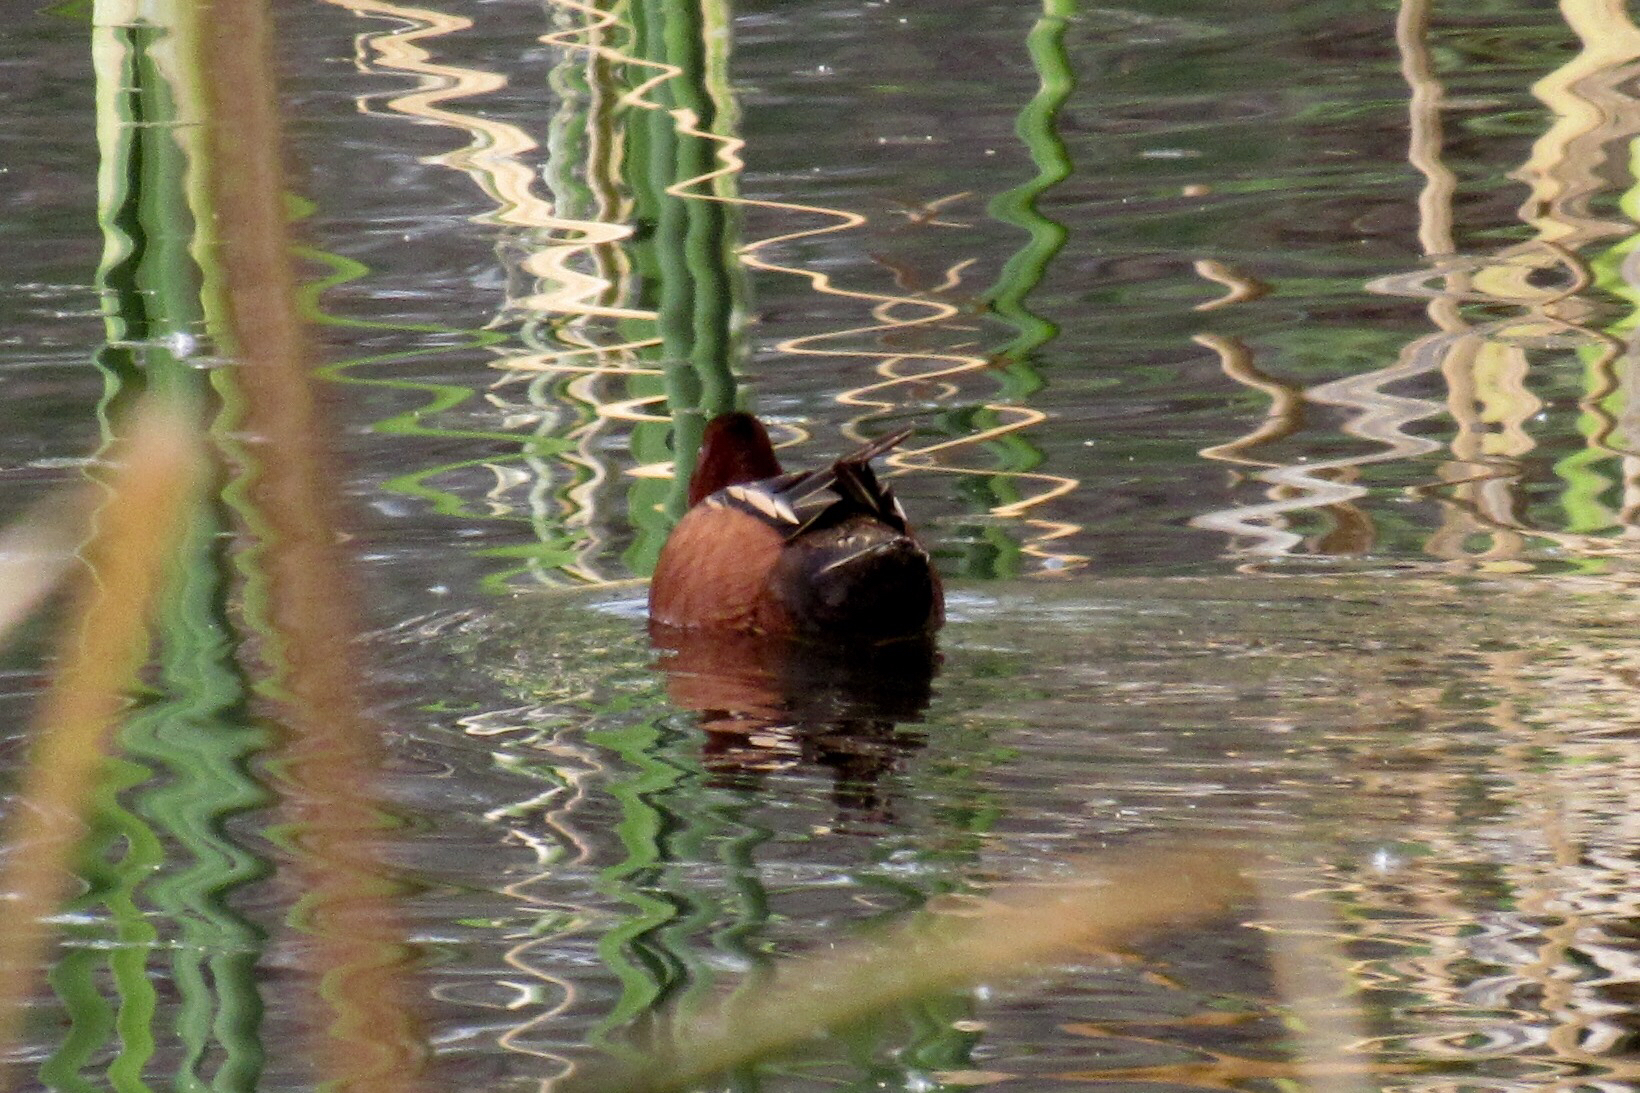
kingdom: Animalia
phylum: Chordata
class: Aves
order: Anseriformes
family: Anatidae
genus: Spatula
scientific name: Spatula cyanoptera
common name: Cinnamon teal
